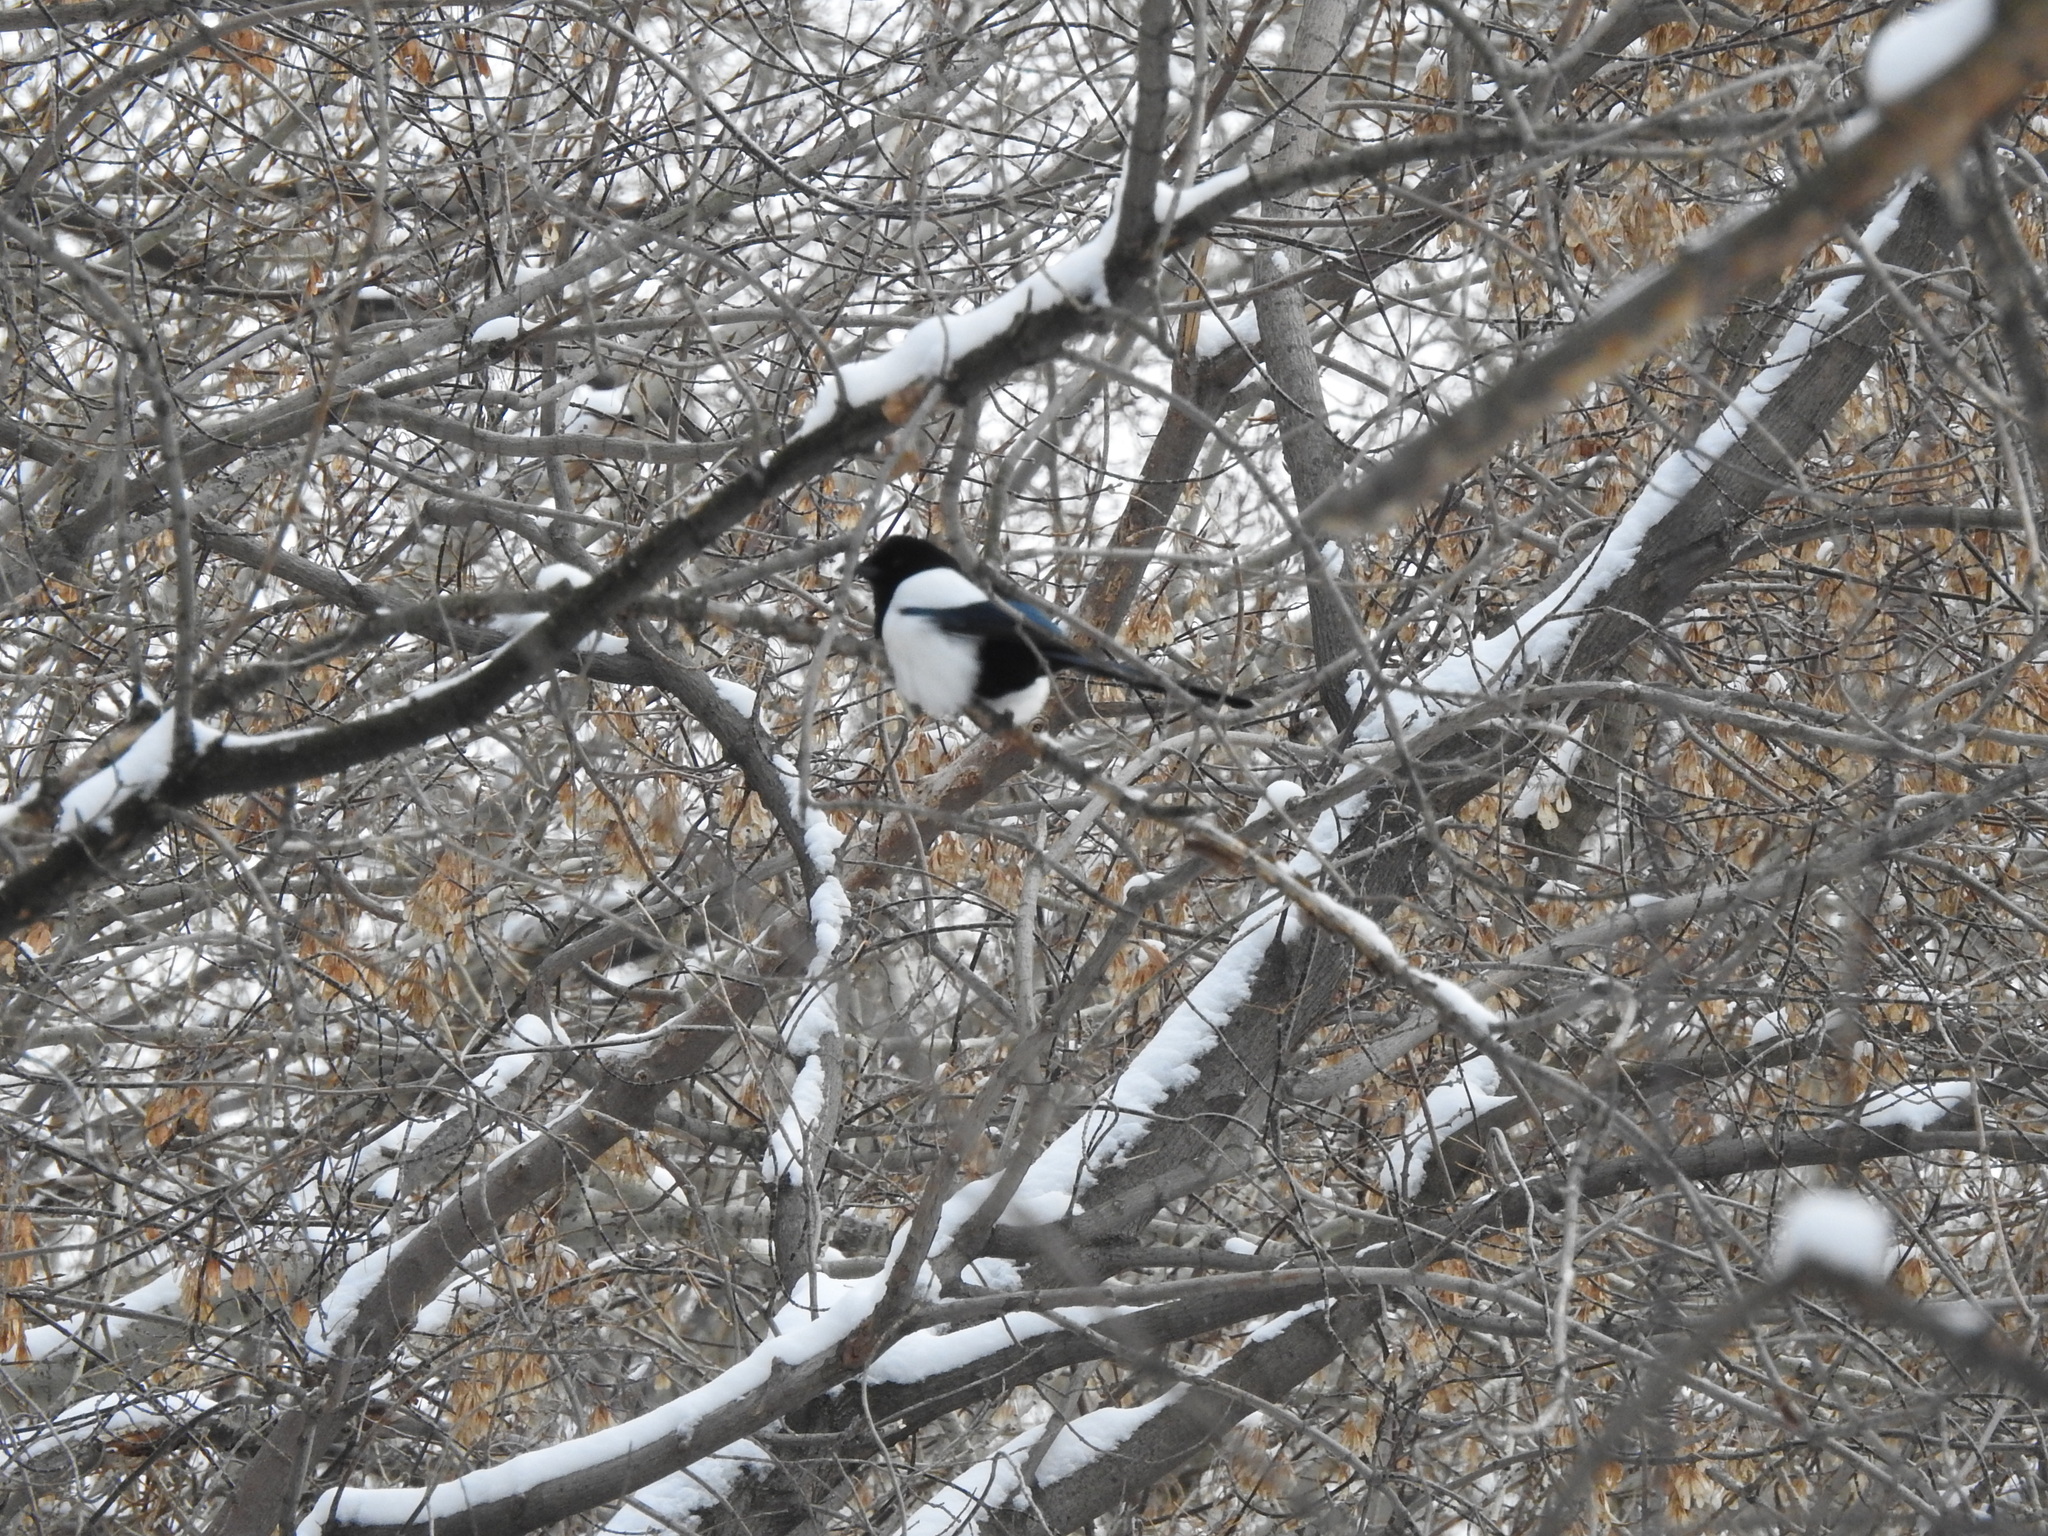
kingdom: Animalia
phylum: Chordata
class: Aves
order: Passeriformes
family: Corvidae
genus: Pica
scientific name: Pica pica
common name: Eurasian magpie
